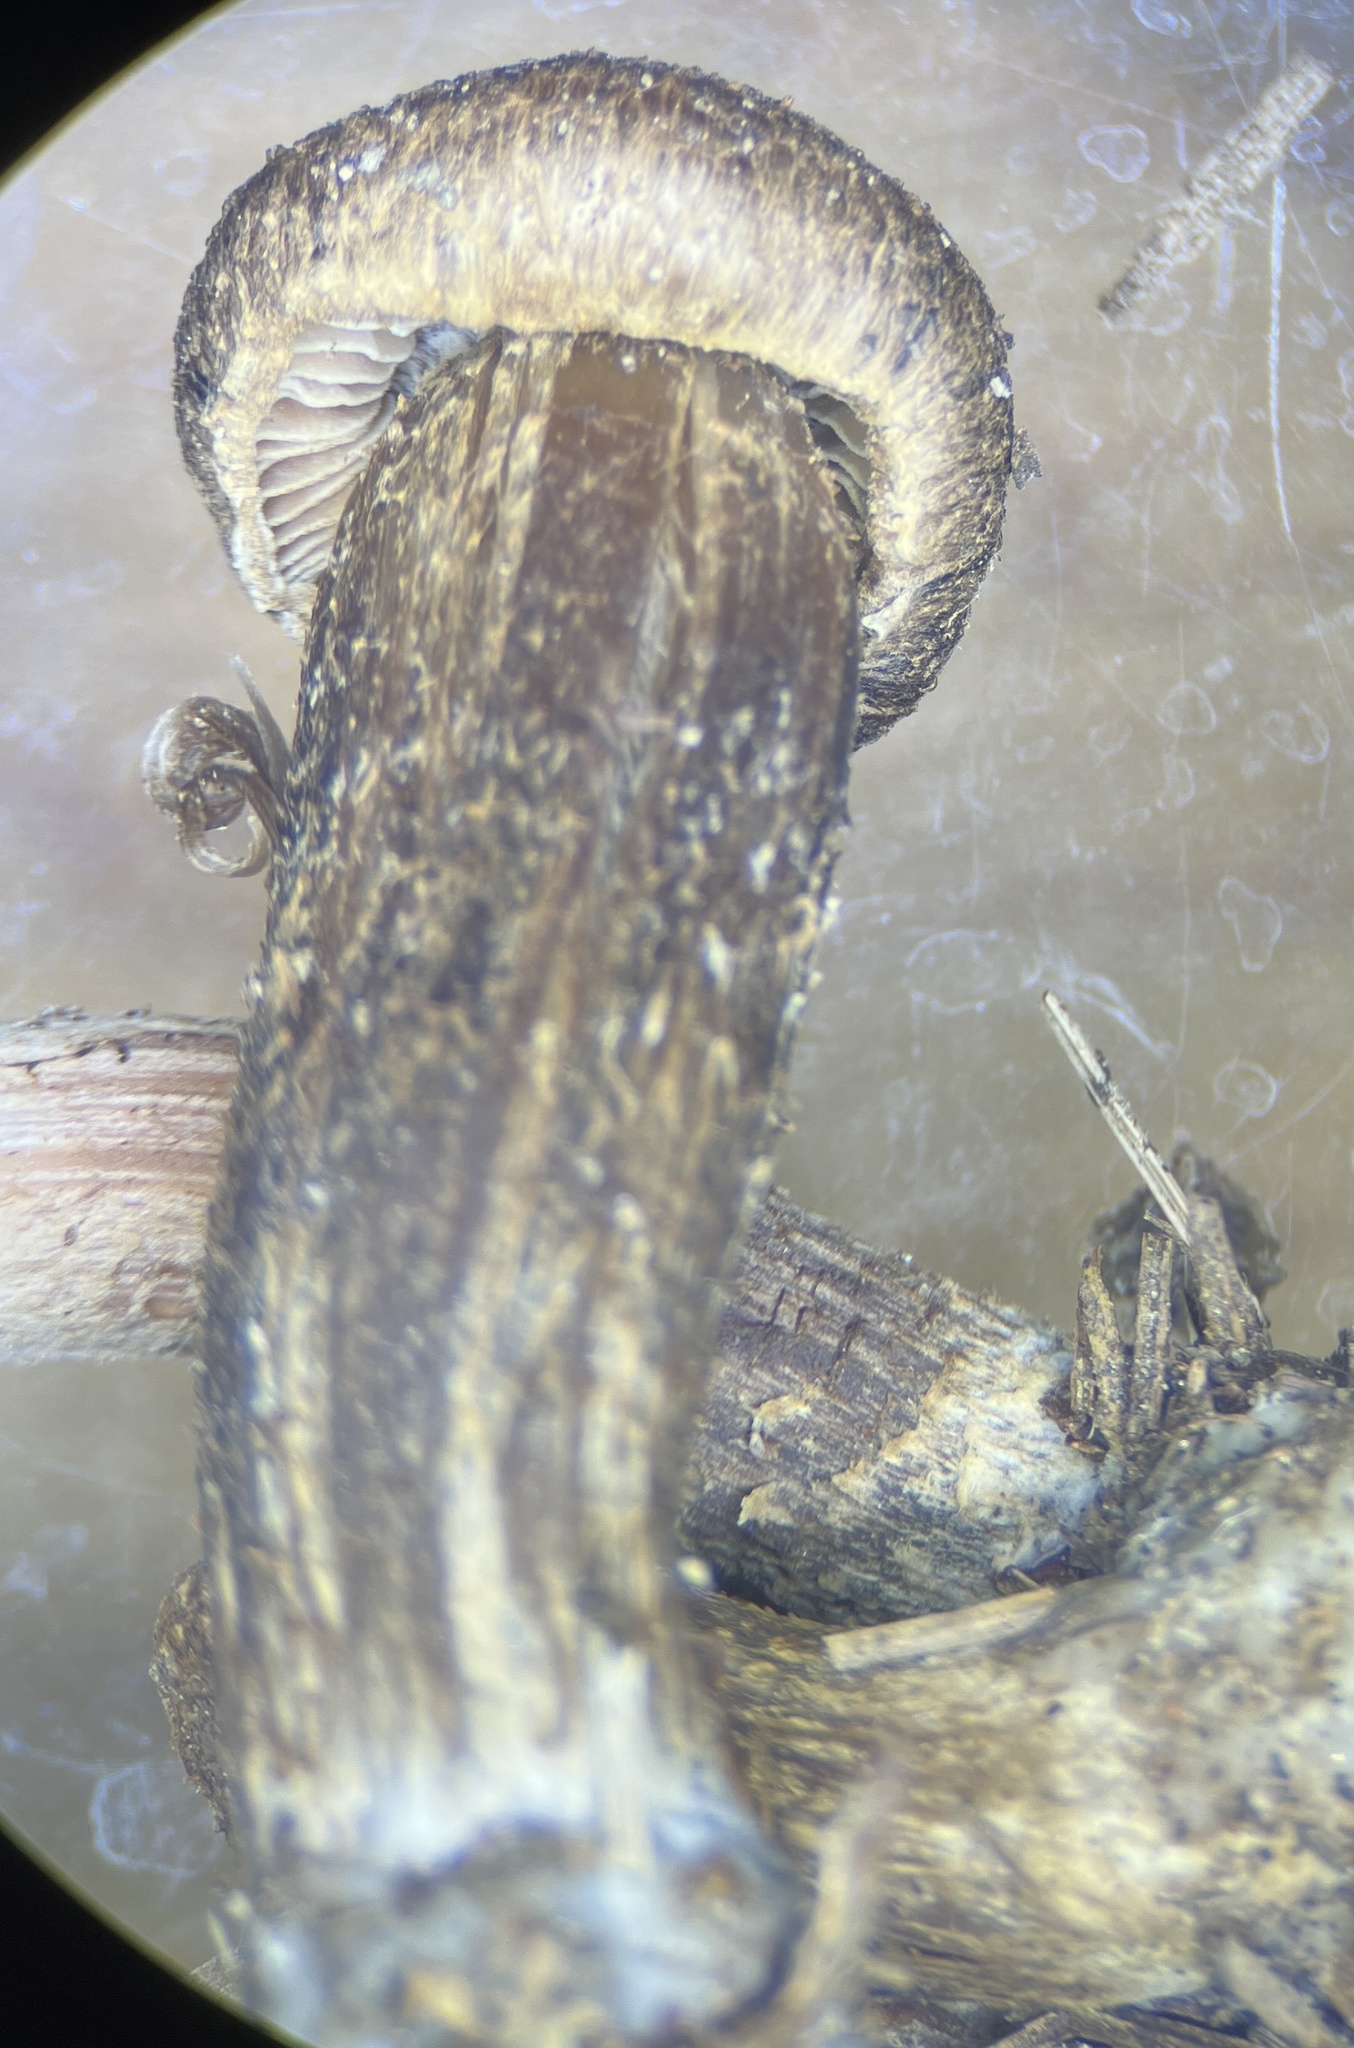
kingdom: Fungi
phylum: Basidiomycota
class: Agaricomycetes
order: Agaricales
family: Inocybaceae
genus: Inocybe
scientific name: Inocybe lacera
